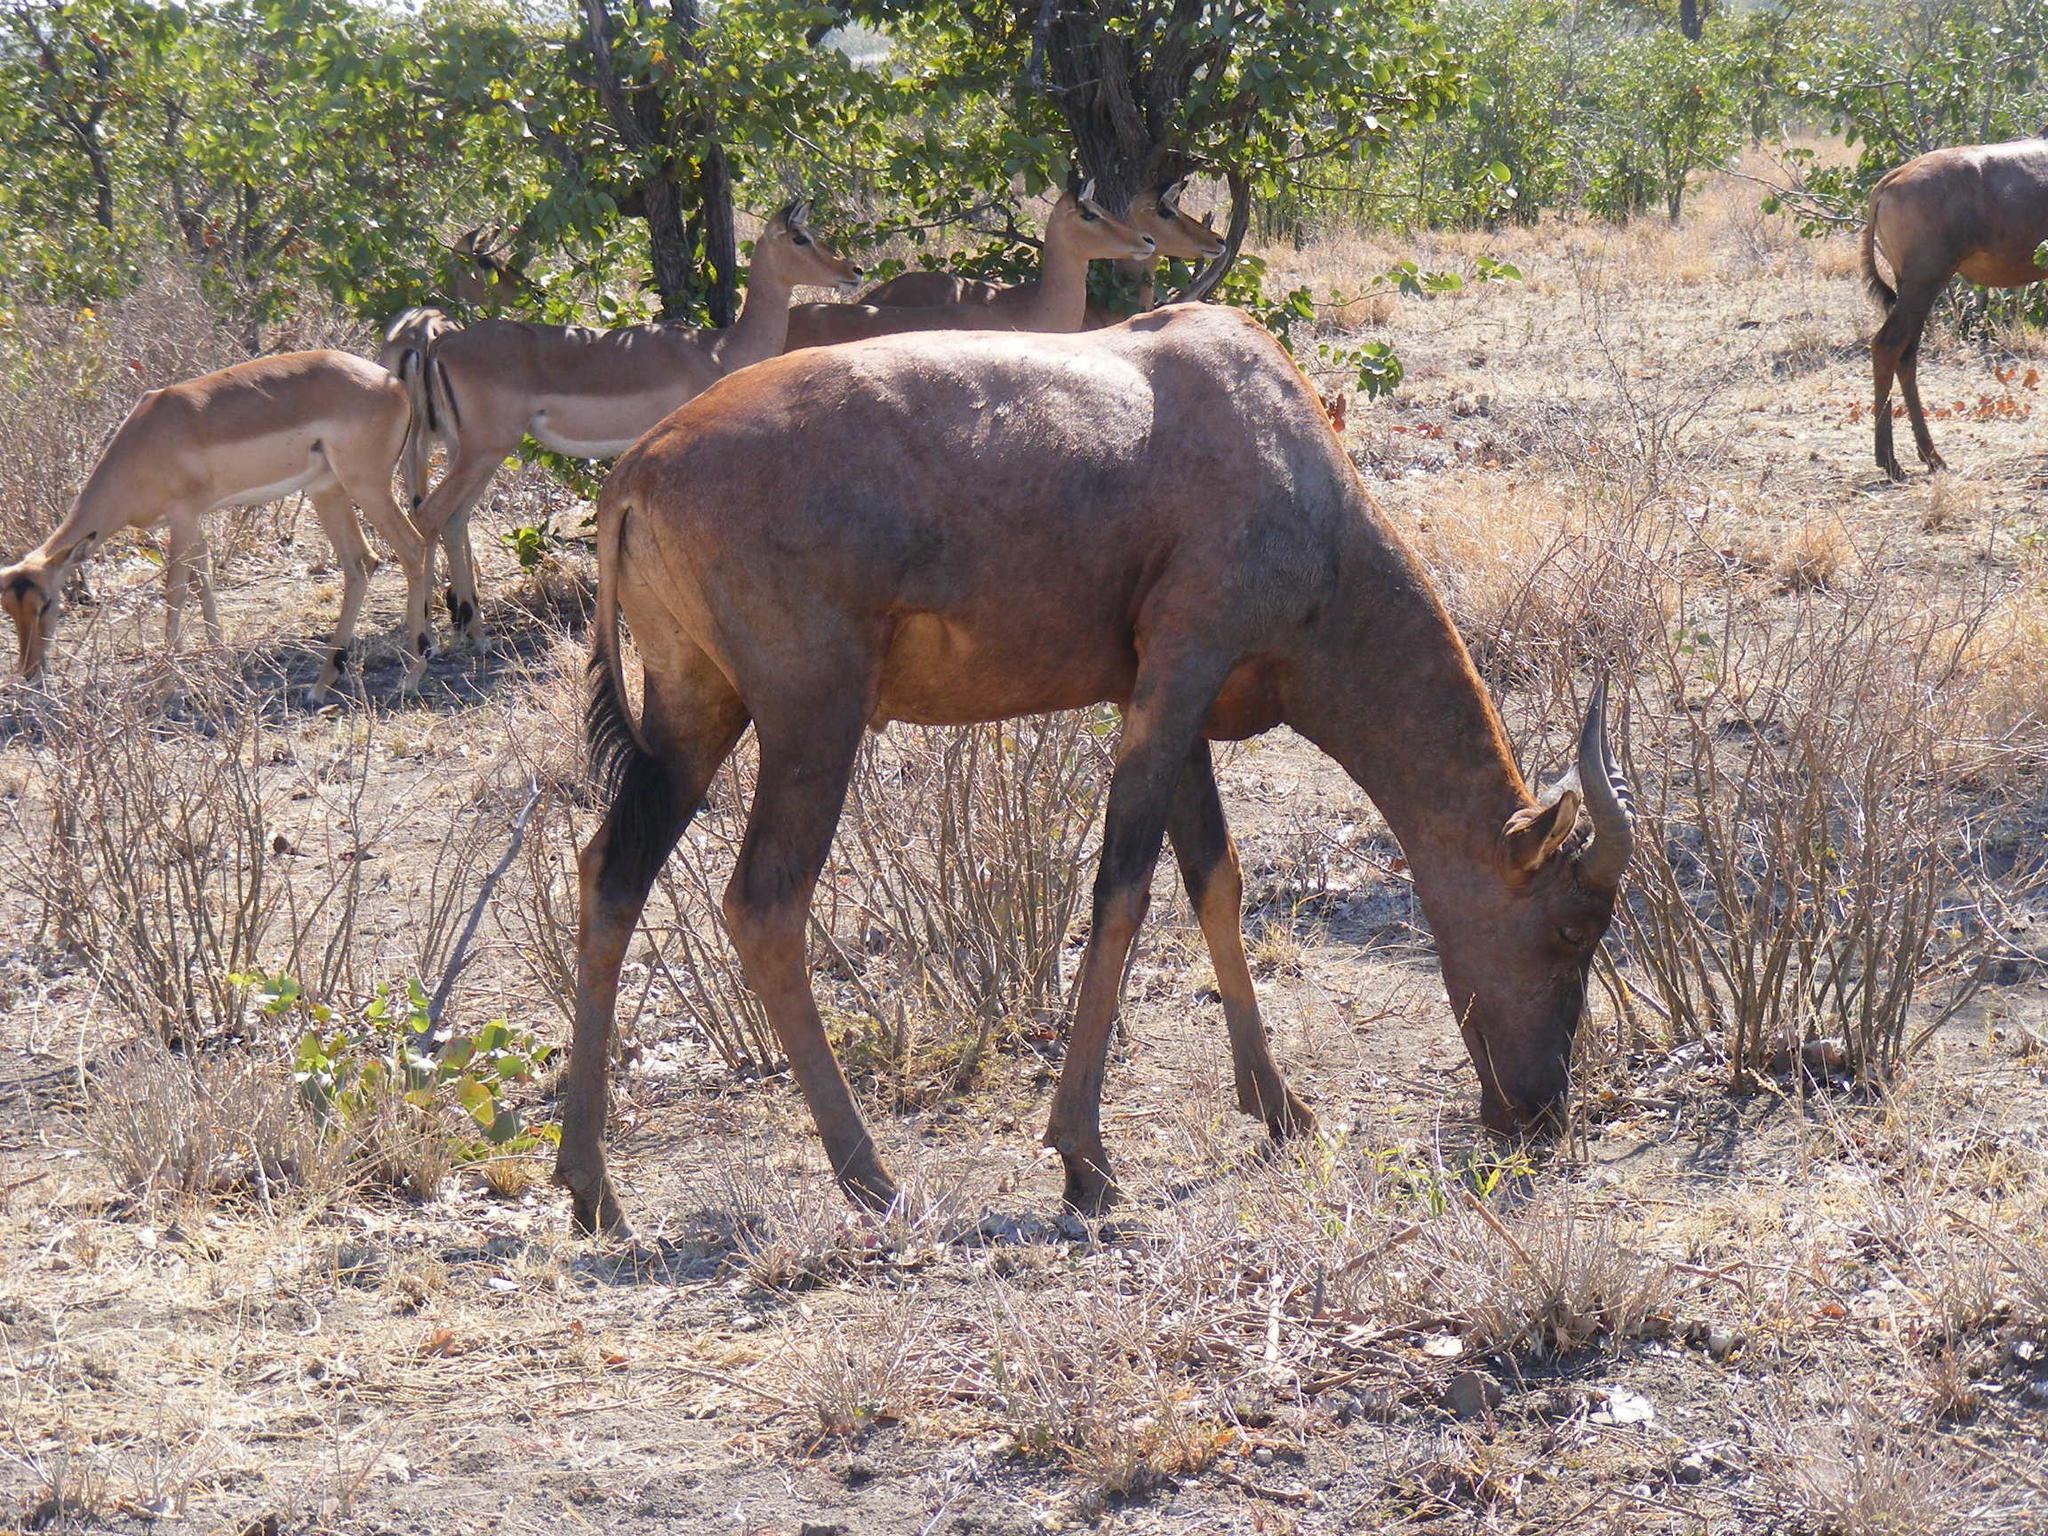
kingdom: Animalia
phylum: Chordata
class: Mammalia
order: Artiodactyla
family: Bovidae
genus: Damaliscus
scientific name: Damaliscus lunatus
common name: Common tsessebe
